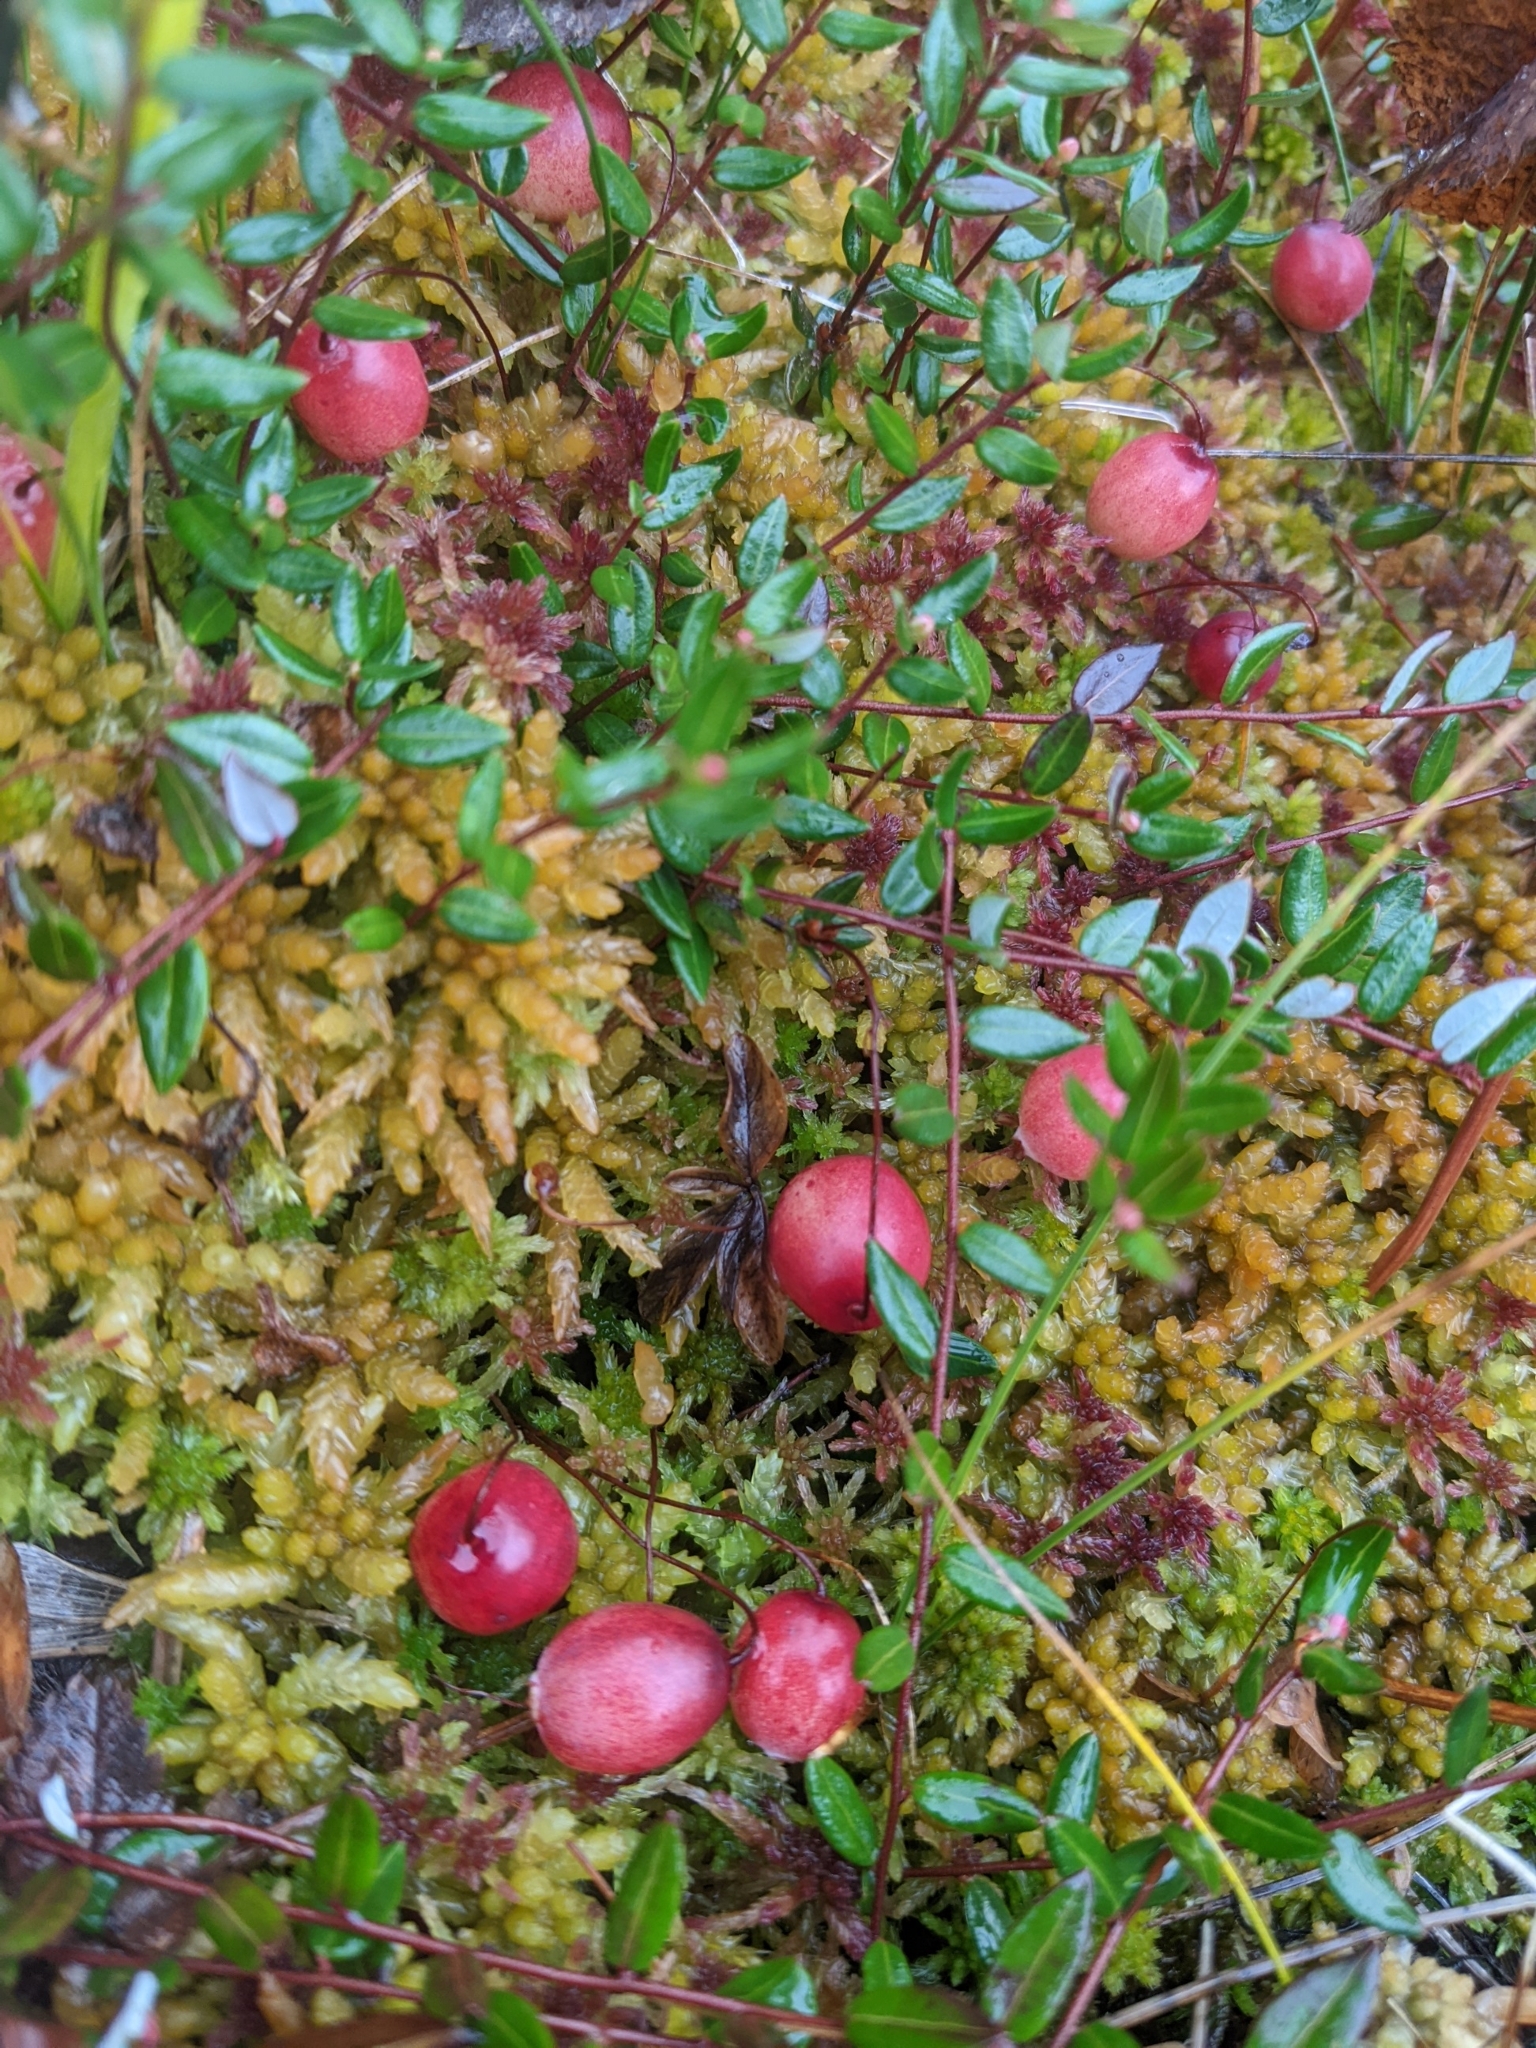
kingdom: Plantae
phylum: Tracheophyta
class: Magnoliopsida
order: Ericales
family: Ericaceae
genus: Vaccinium
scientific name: Vaccinium oxycoccos
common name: Cranberry
